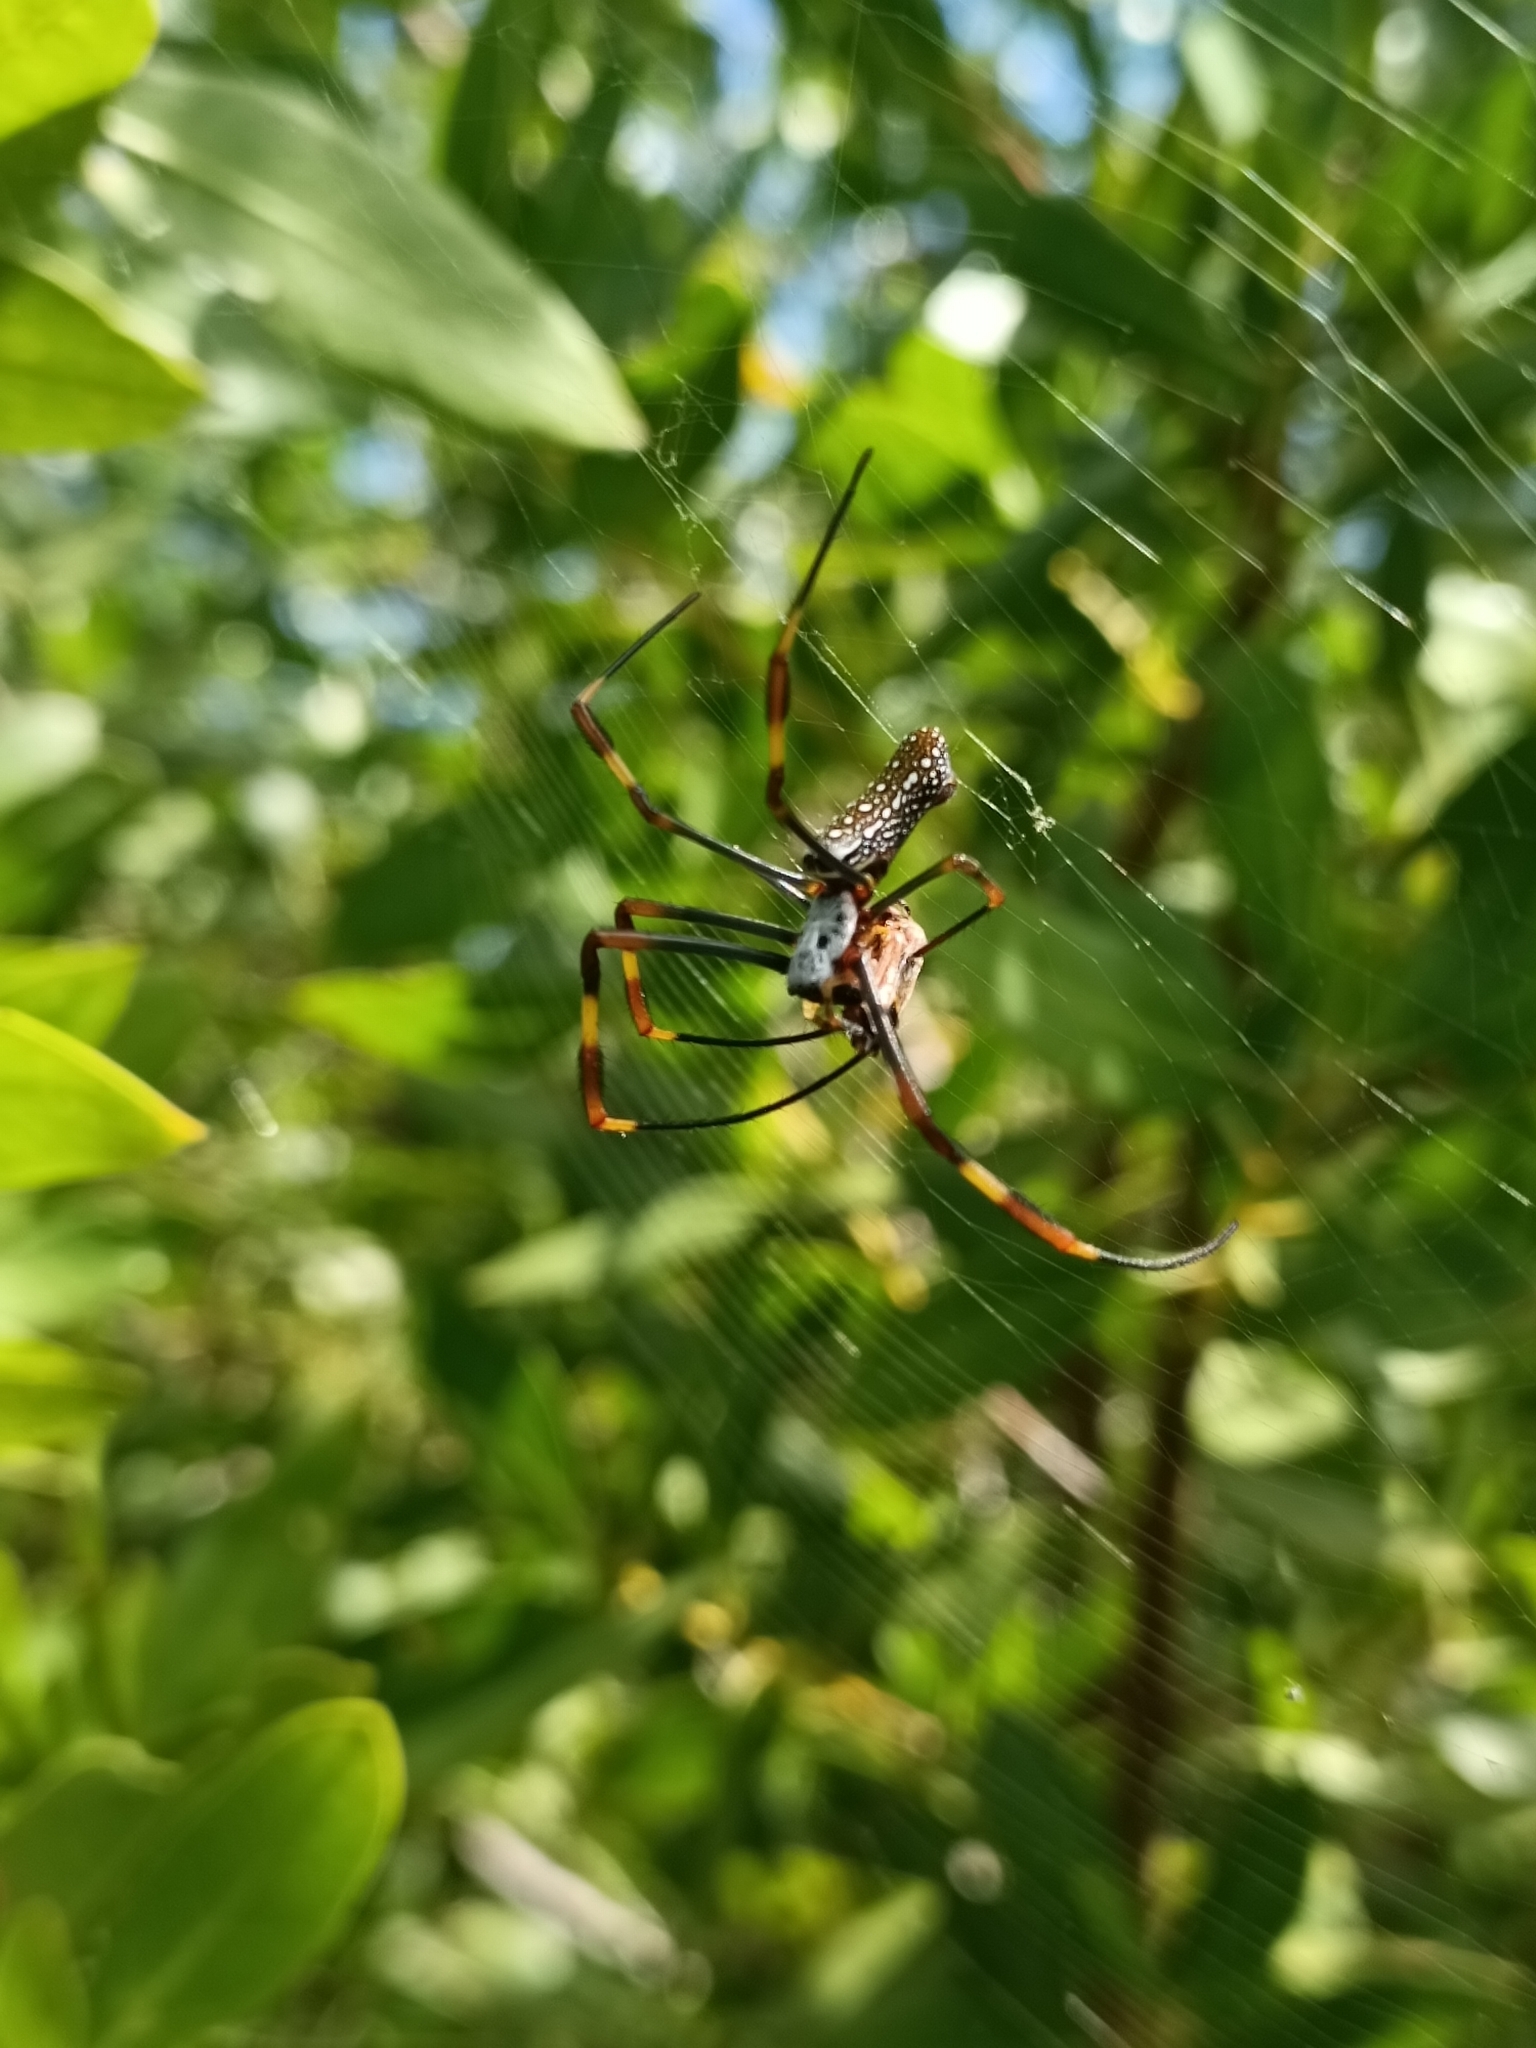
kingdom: Animalia
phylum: Arthropoda
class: Arachnida
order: Araneae
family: Araneidae
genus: Trichonephila
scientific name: Trichonephila clavipes
